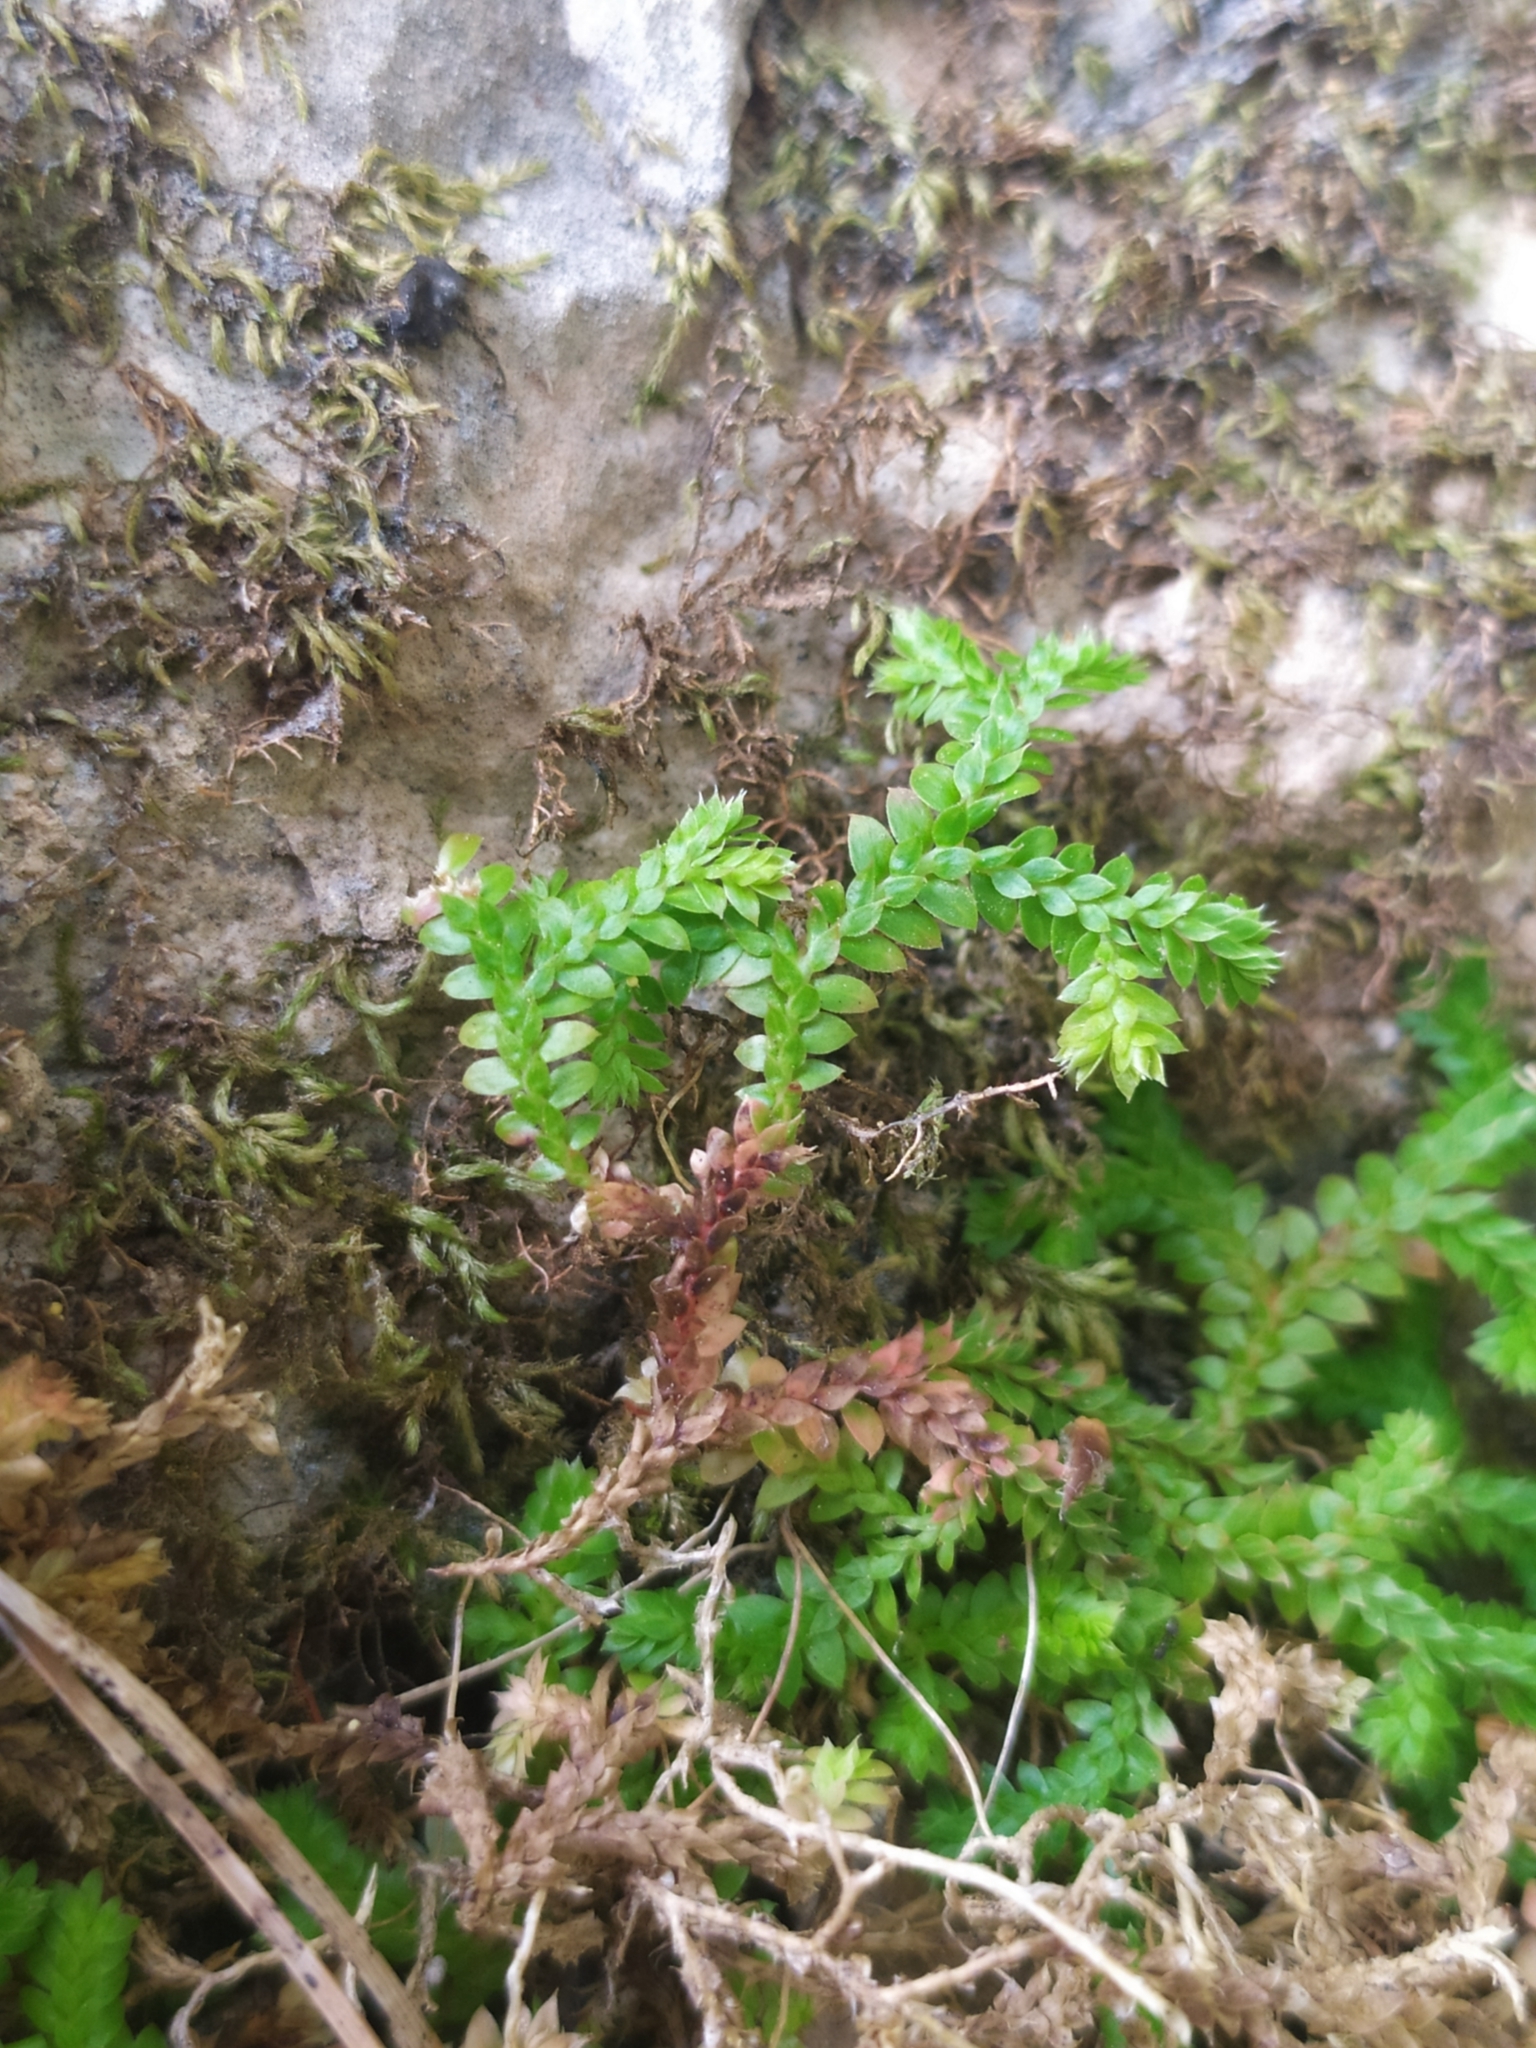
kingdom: Plantae
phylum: Tracheophyta
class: Lycopodiopsida
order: Selaginellales
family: Selaginellaceae
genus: Selaginella
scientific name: Selaginella denticulata
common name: Toothed-leaved clubmoss
